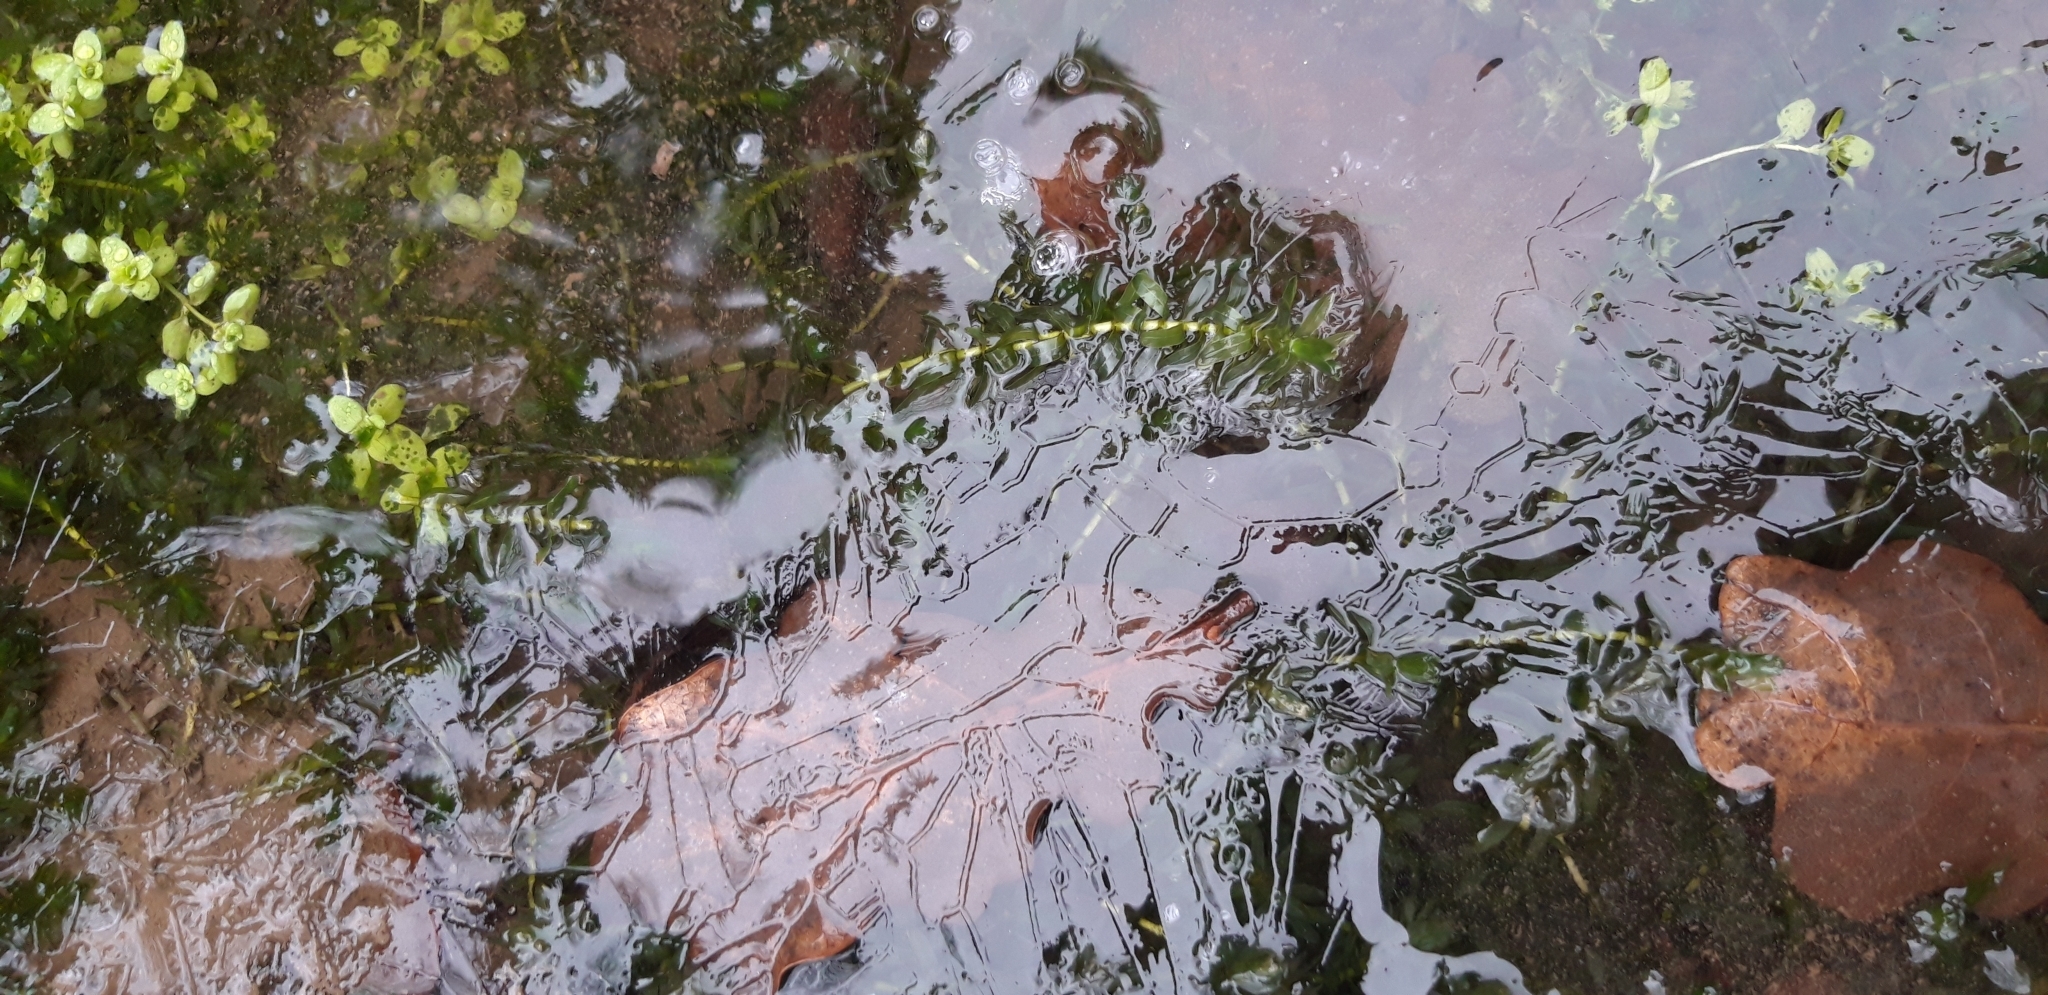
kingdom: Plantae
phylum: Tracheophyta
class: Liliopsida
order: Alismatales
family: Hydrocharitaceae
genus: Elodea
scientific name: Elodea canadensis
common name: Canadian waterweed
